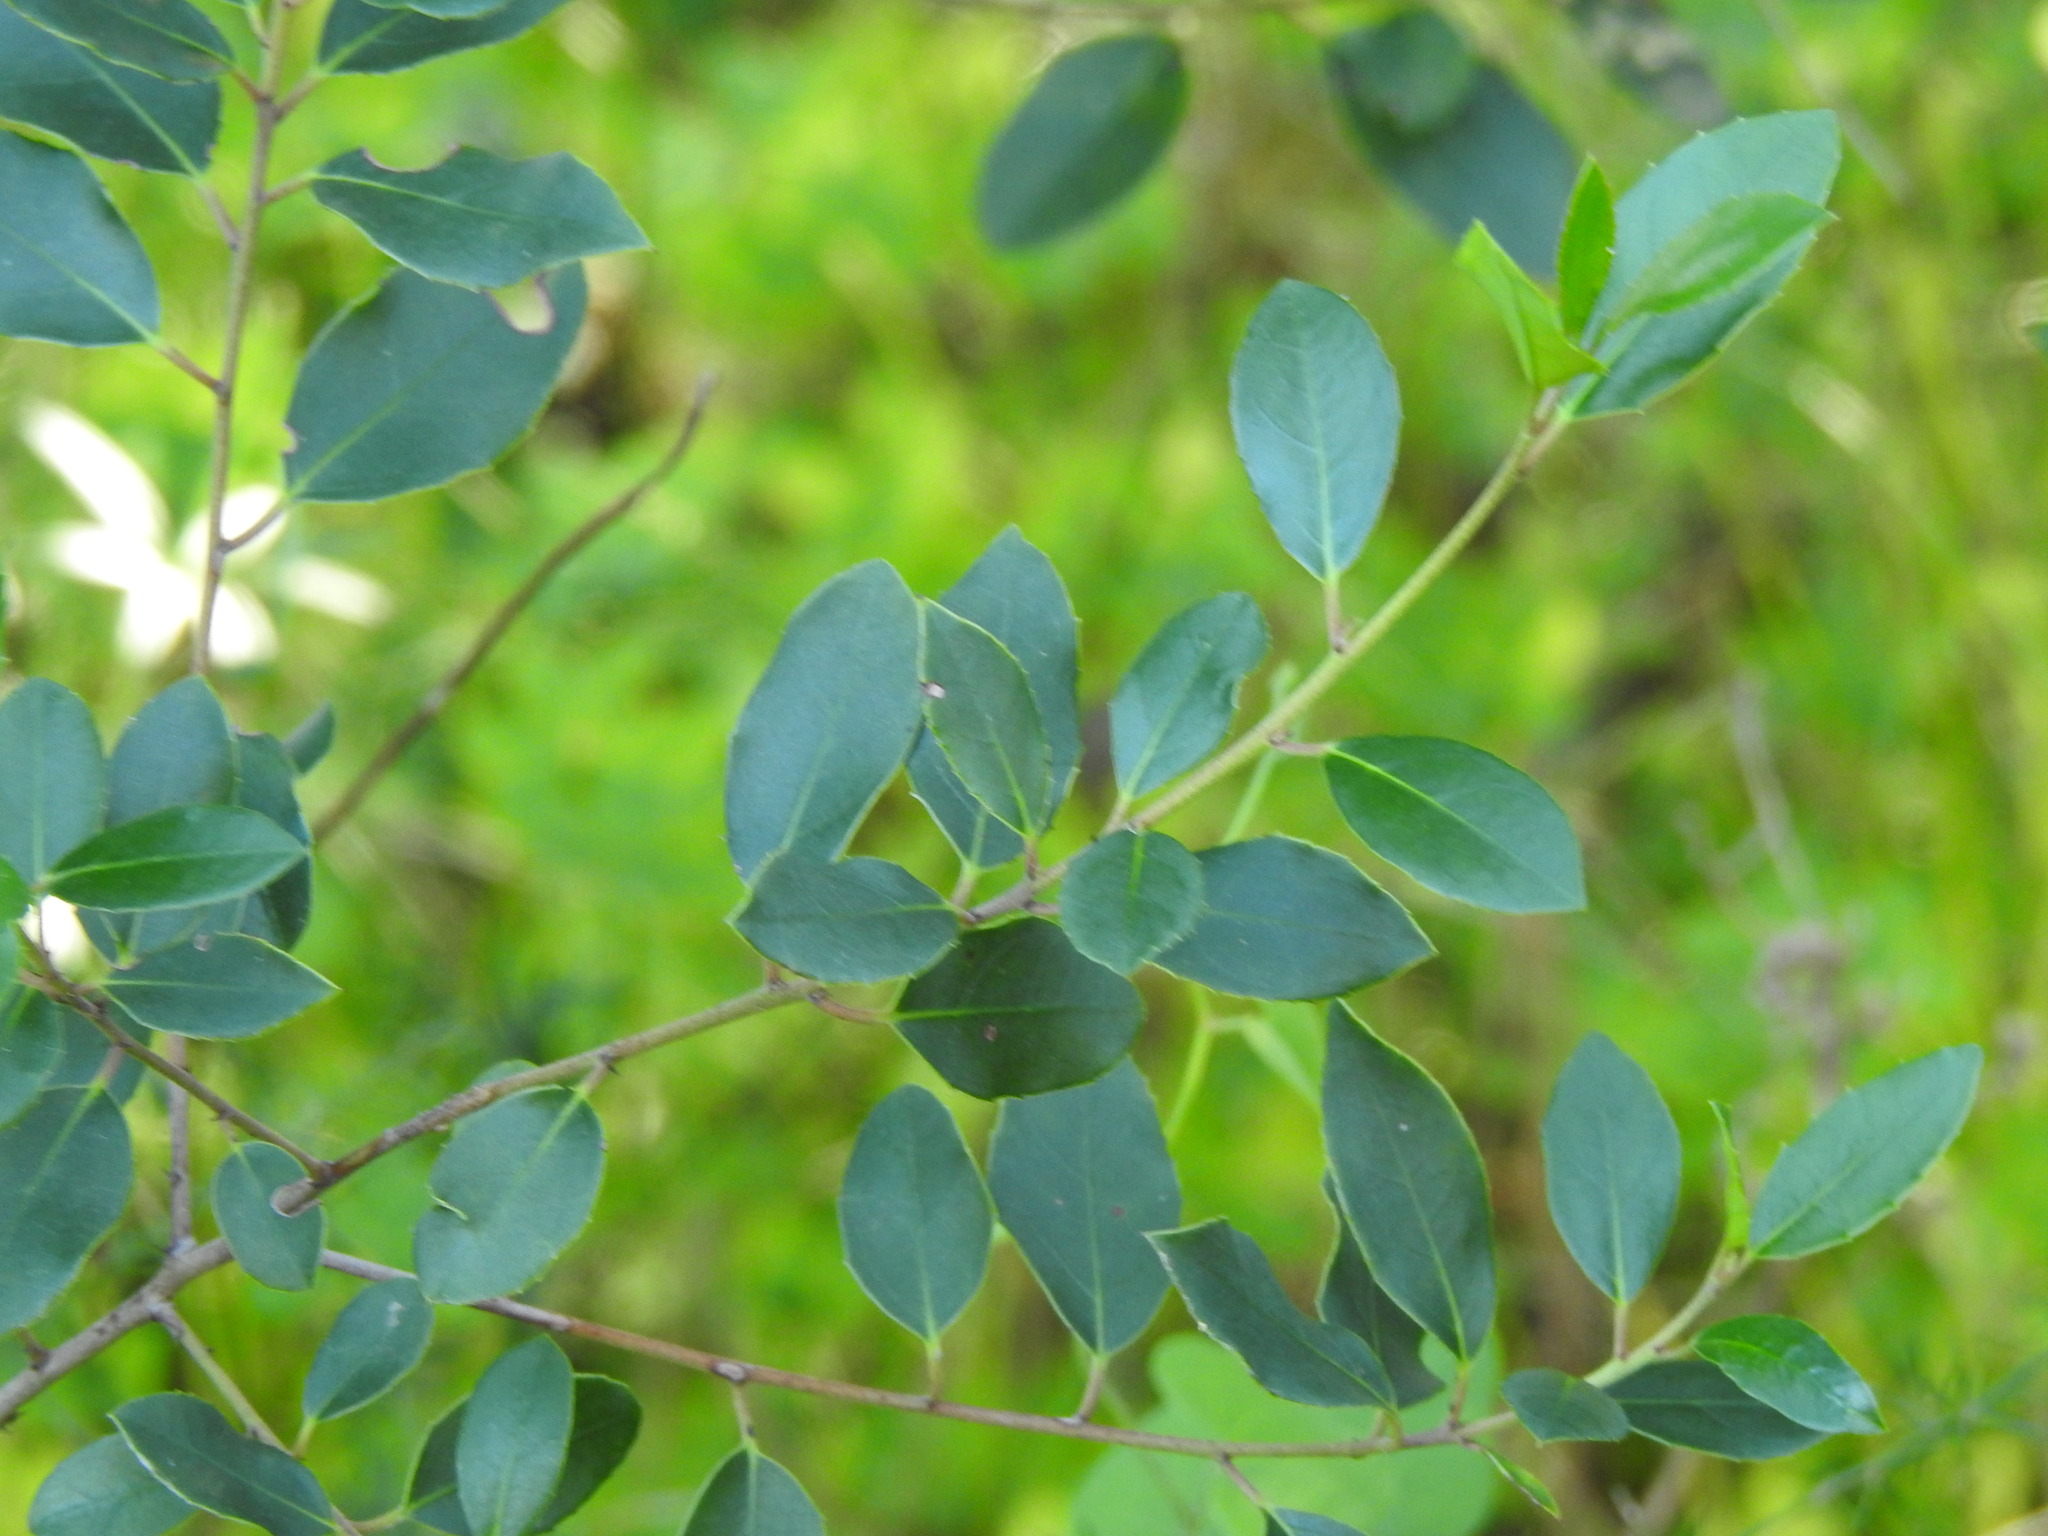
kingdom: Plantae
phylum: Tracheophyta
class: Magnoliopsida
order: Rosales
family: Rhamnaceae
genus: Rhamnus
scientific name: Rhamnus alaternus
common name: Mediterranean buckthorn
